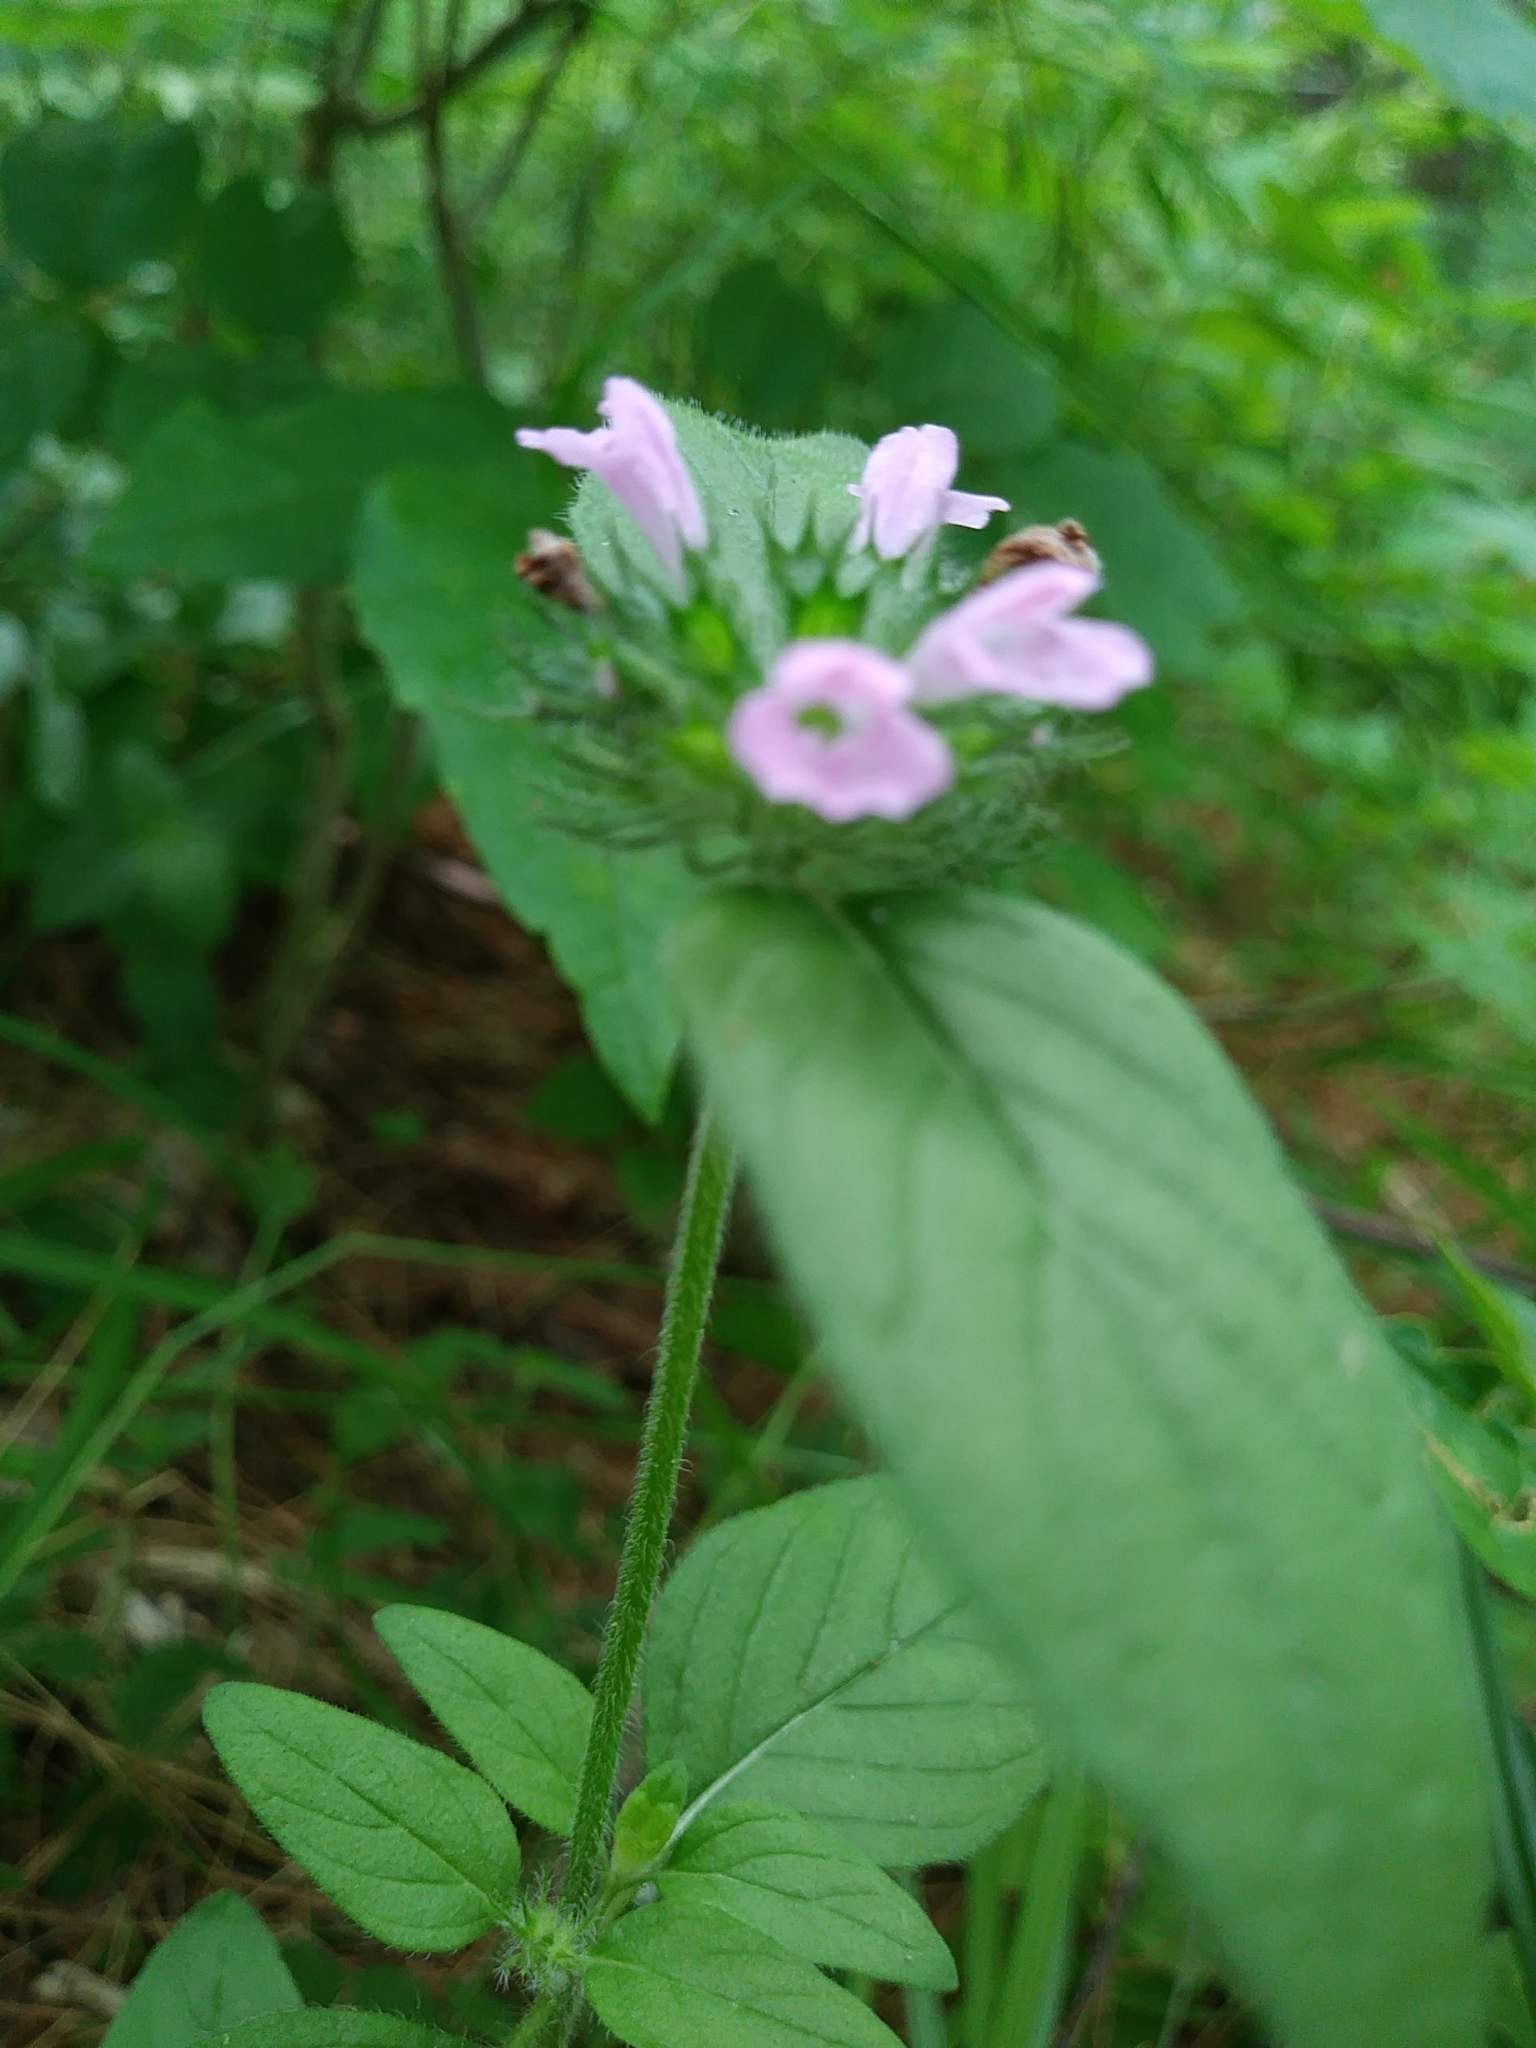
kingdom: Plantae
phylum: Tracheophyta
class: Magnoliopsida
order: Lamiales
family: Lamiaceae
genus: Clinopodium
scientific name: Clinopodium vulgare
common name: Wild basil
